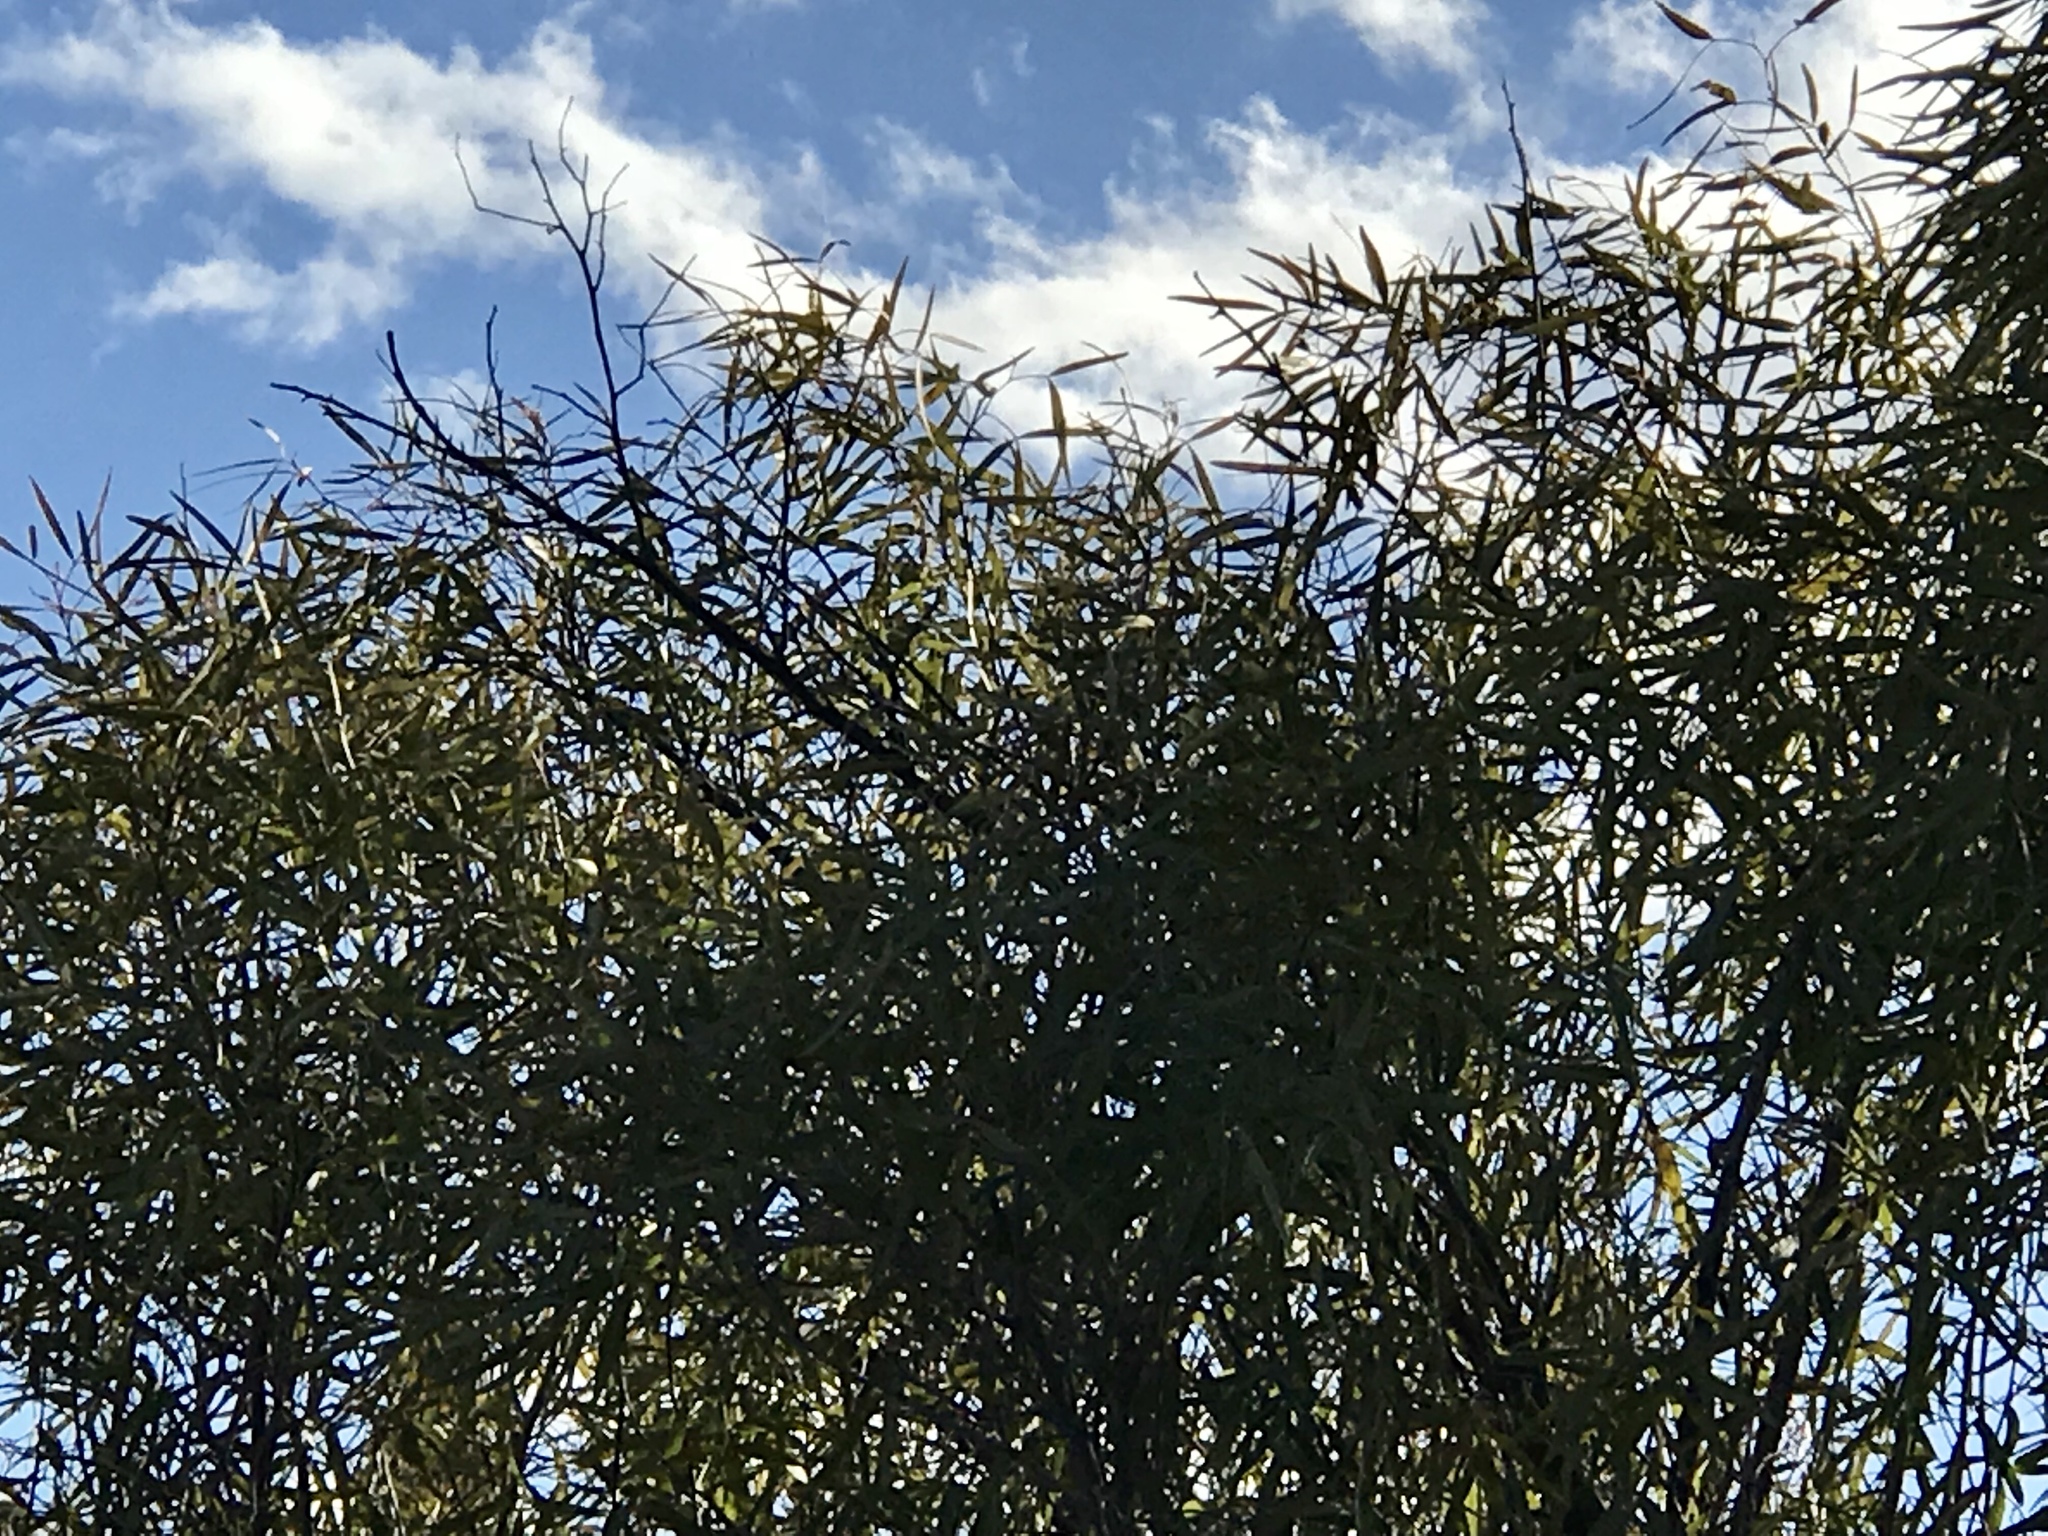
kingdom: Plantae
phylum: Tracheophyta
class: Magnoliopsida
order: Lamiales
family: Bignoniaceae
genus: Chilopsis
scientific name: Chilopsis linearis
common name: Desert-willow
